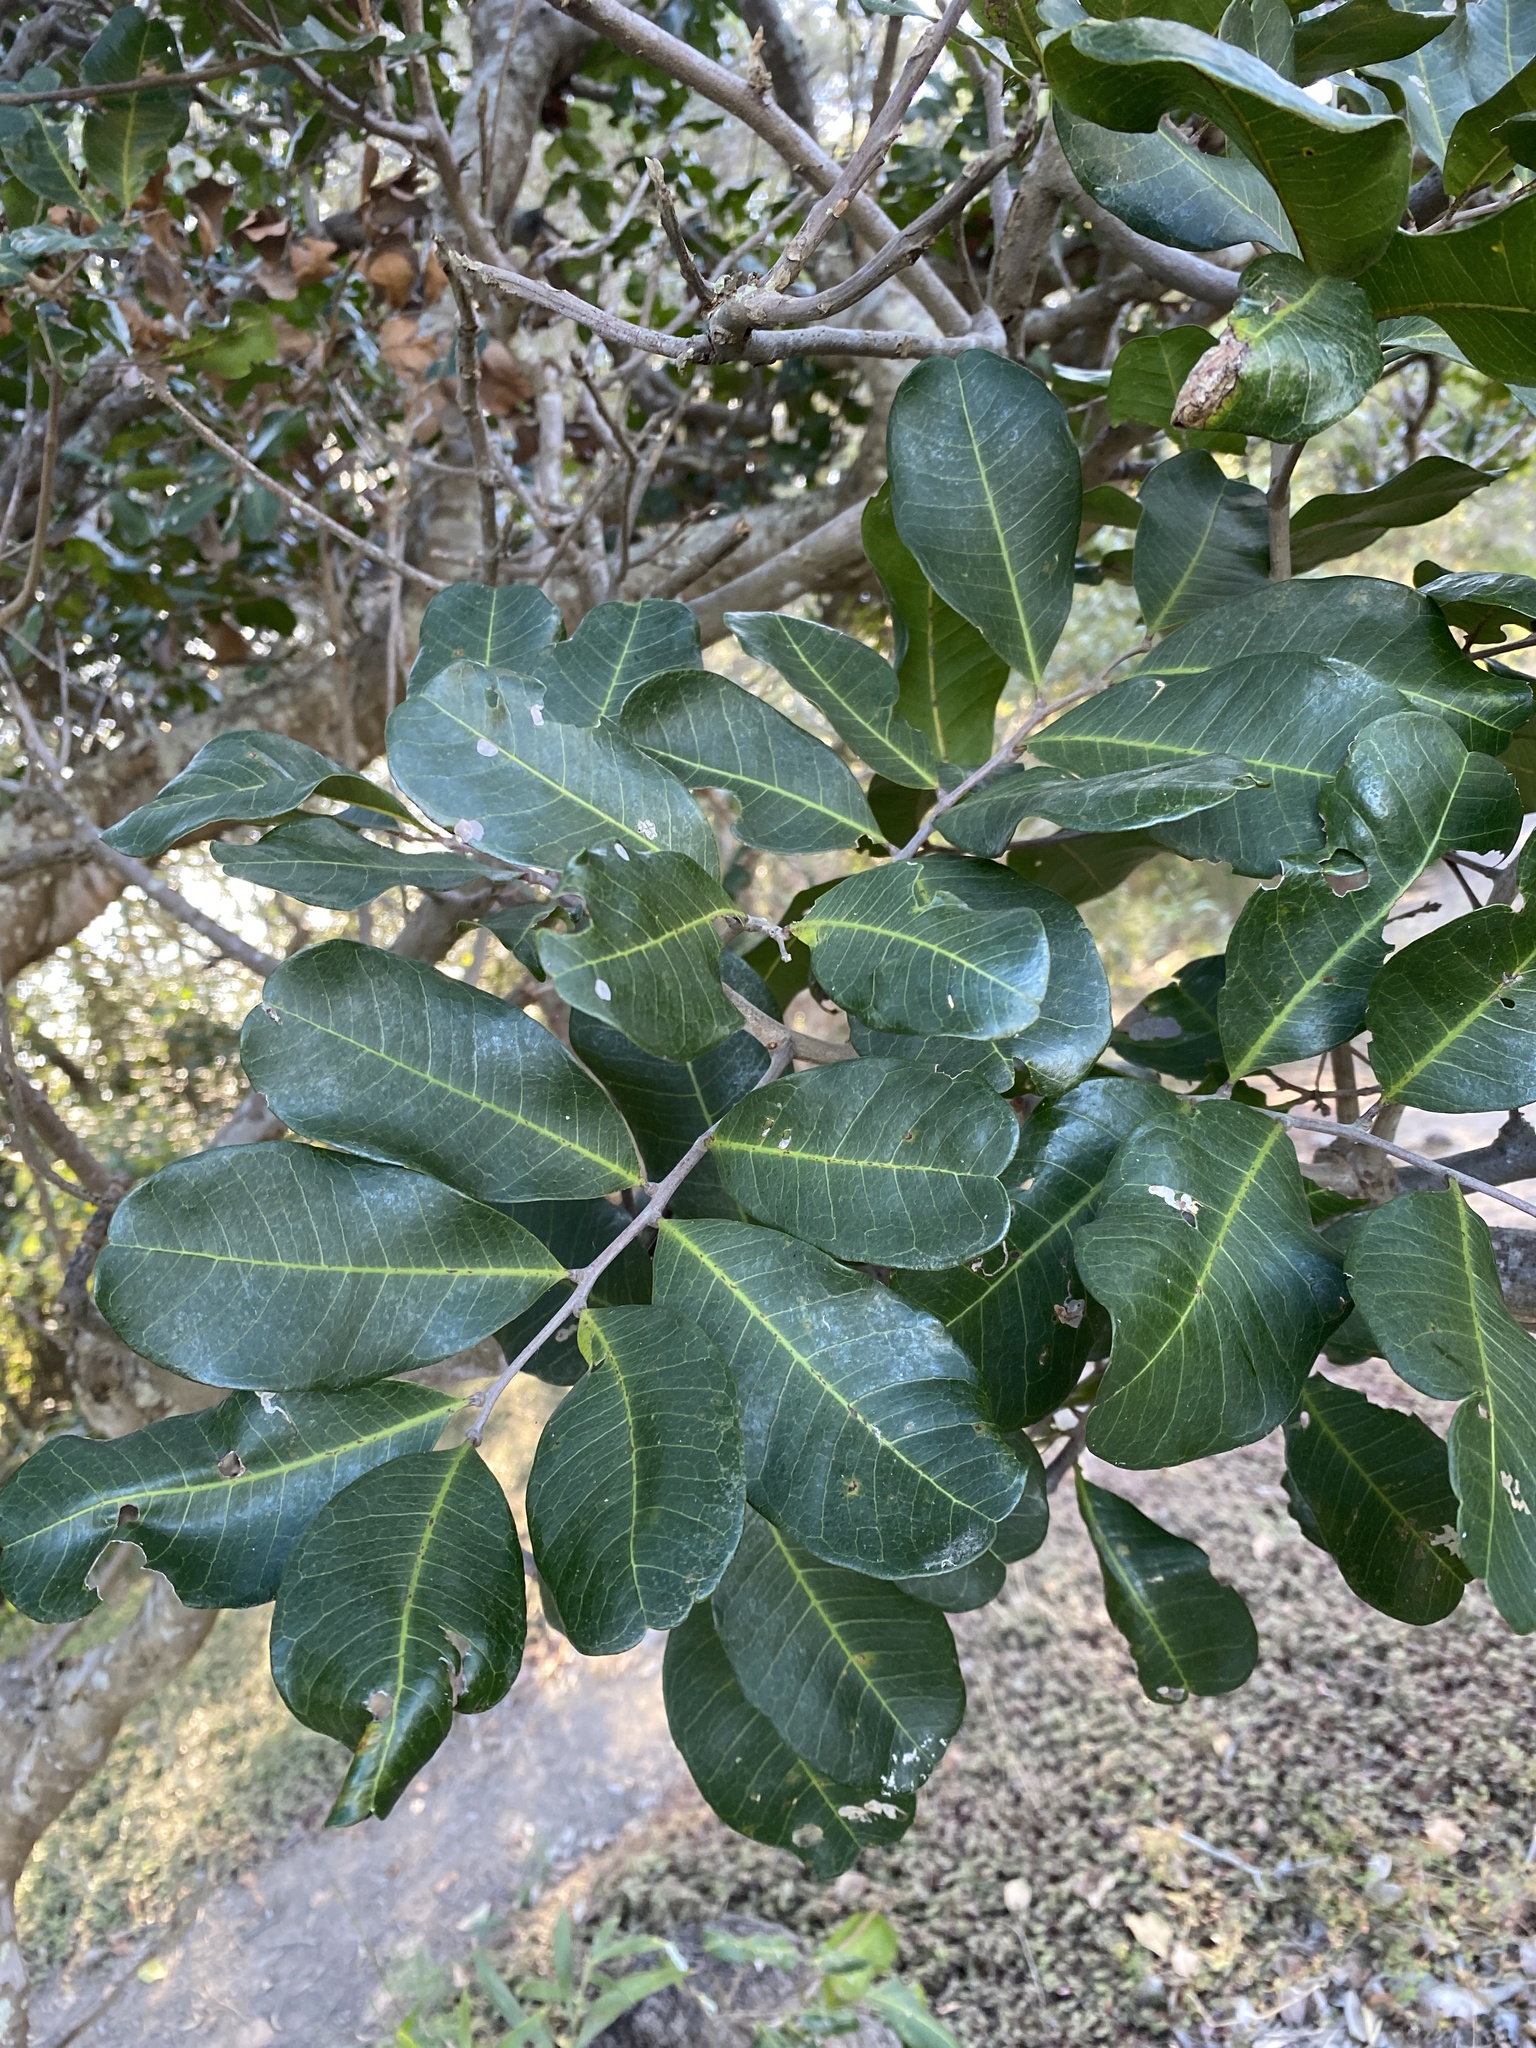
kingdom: Plantae
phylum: Tracheophyta
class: Magnoliopsida
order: Sapindales
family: Sapindaceae
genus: Cupaniopsis
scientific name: Cupaniopsis anacardioides
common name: Carrotwood
